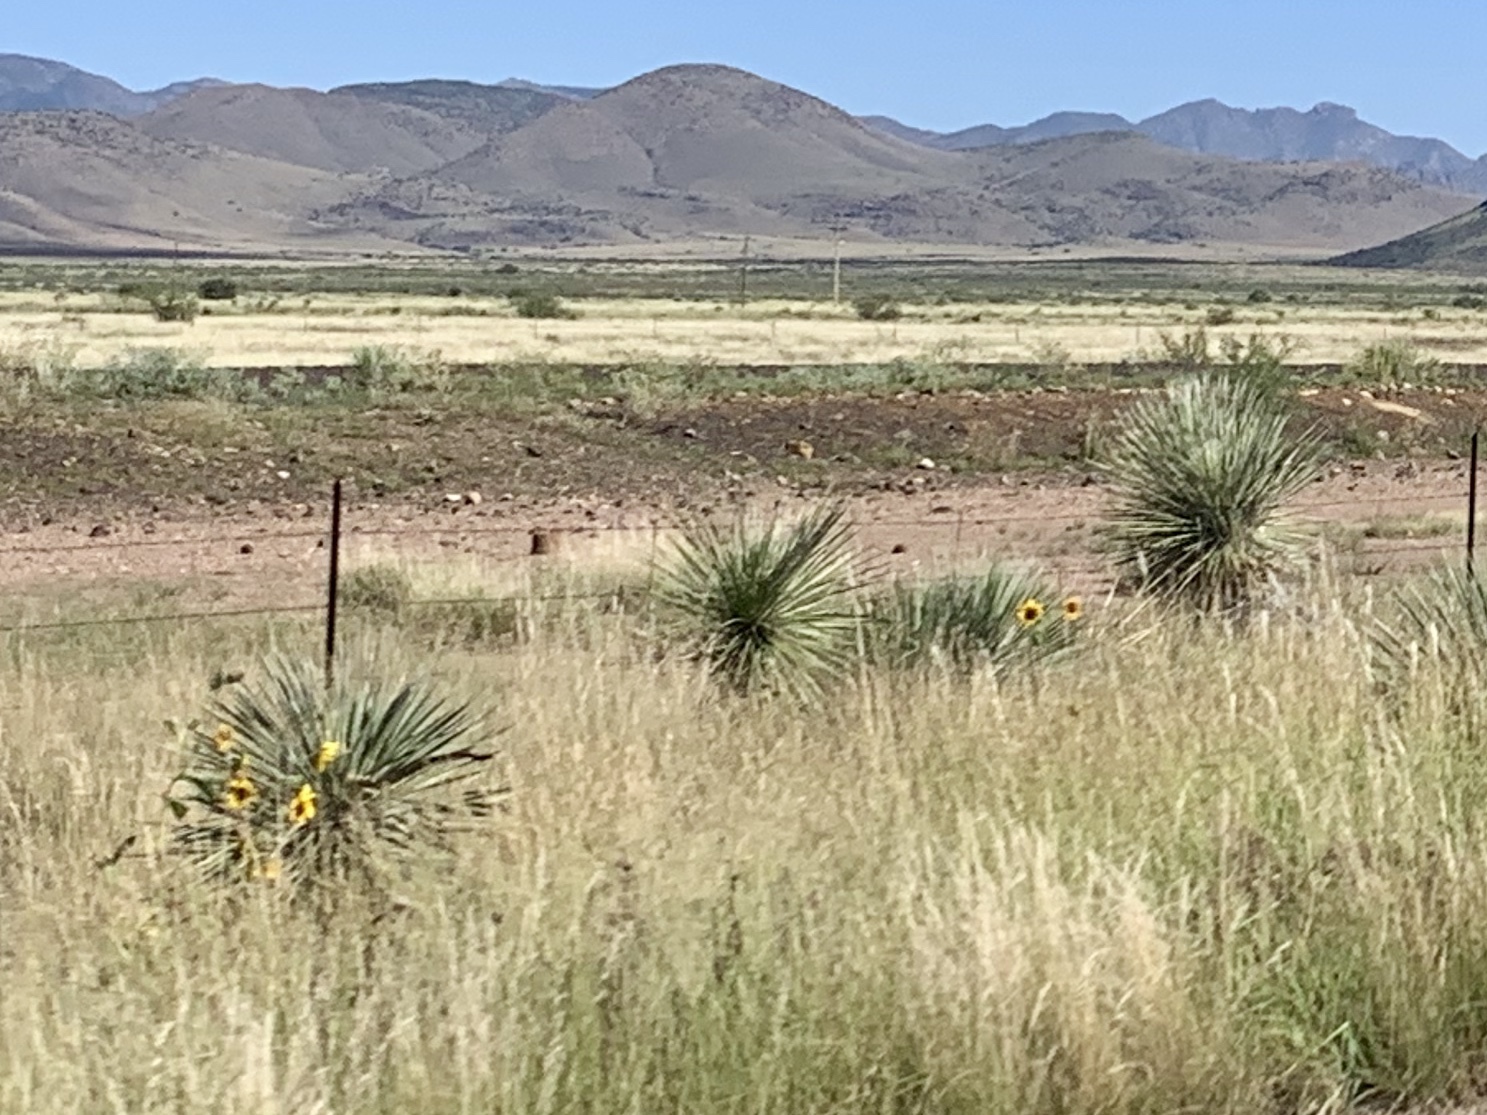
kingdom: Plantae
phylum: Tracheophyta
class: Liliopsida
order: Asparagales
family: Asparagaceae
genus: Yucca
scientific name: Yucca elata
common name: Palmella
